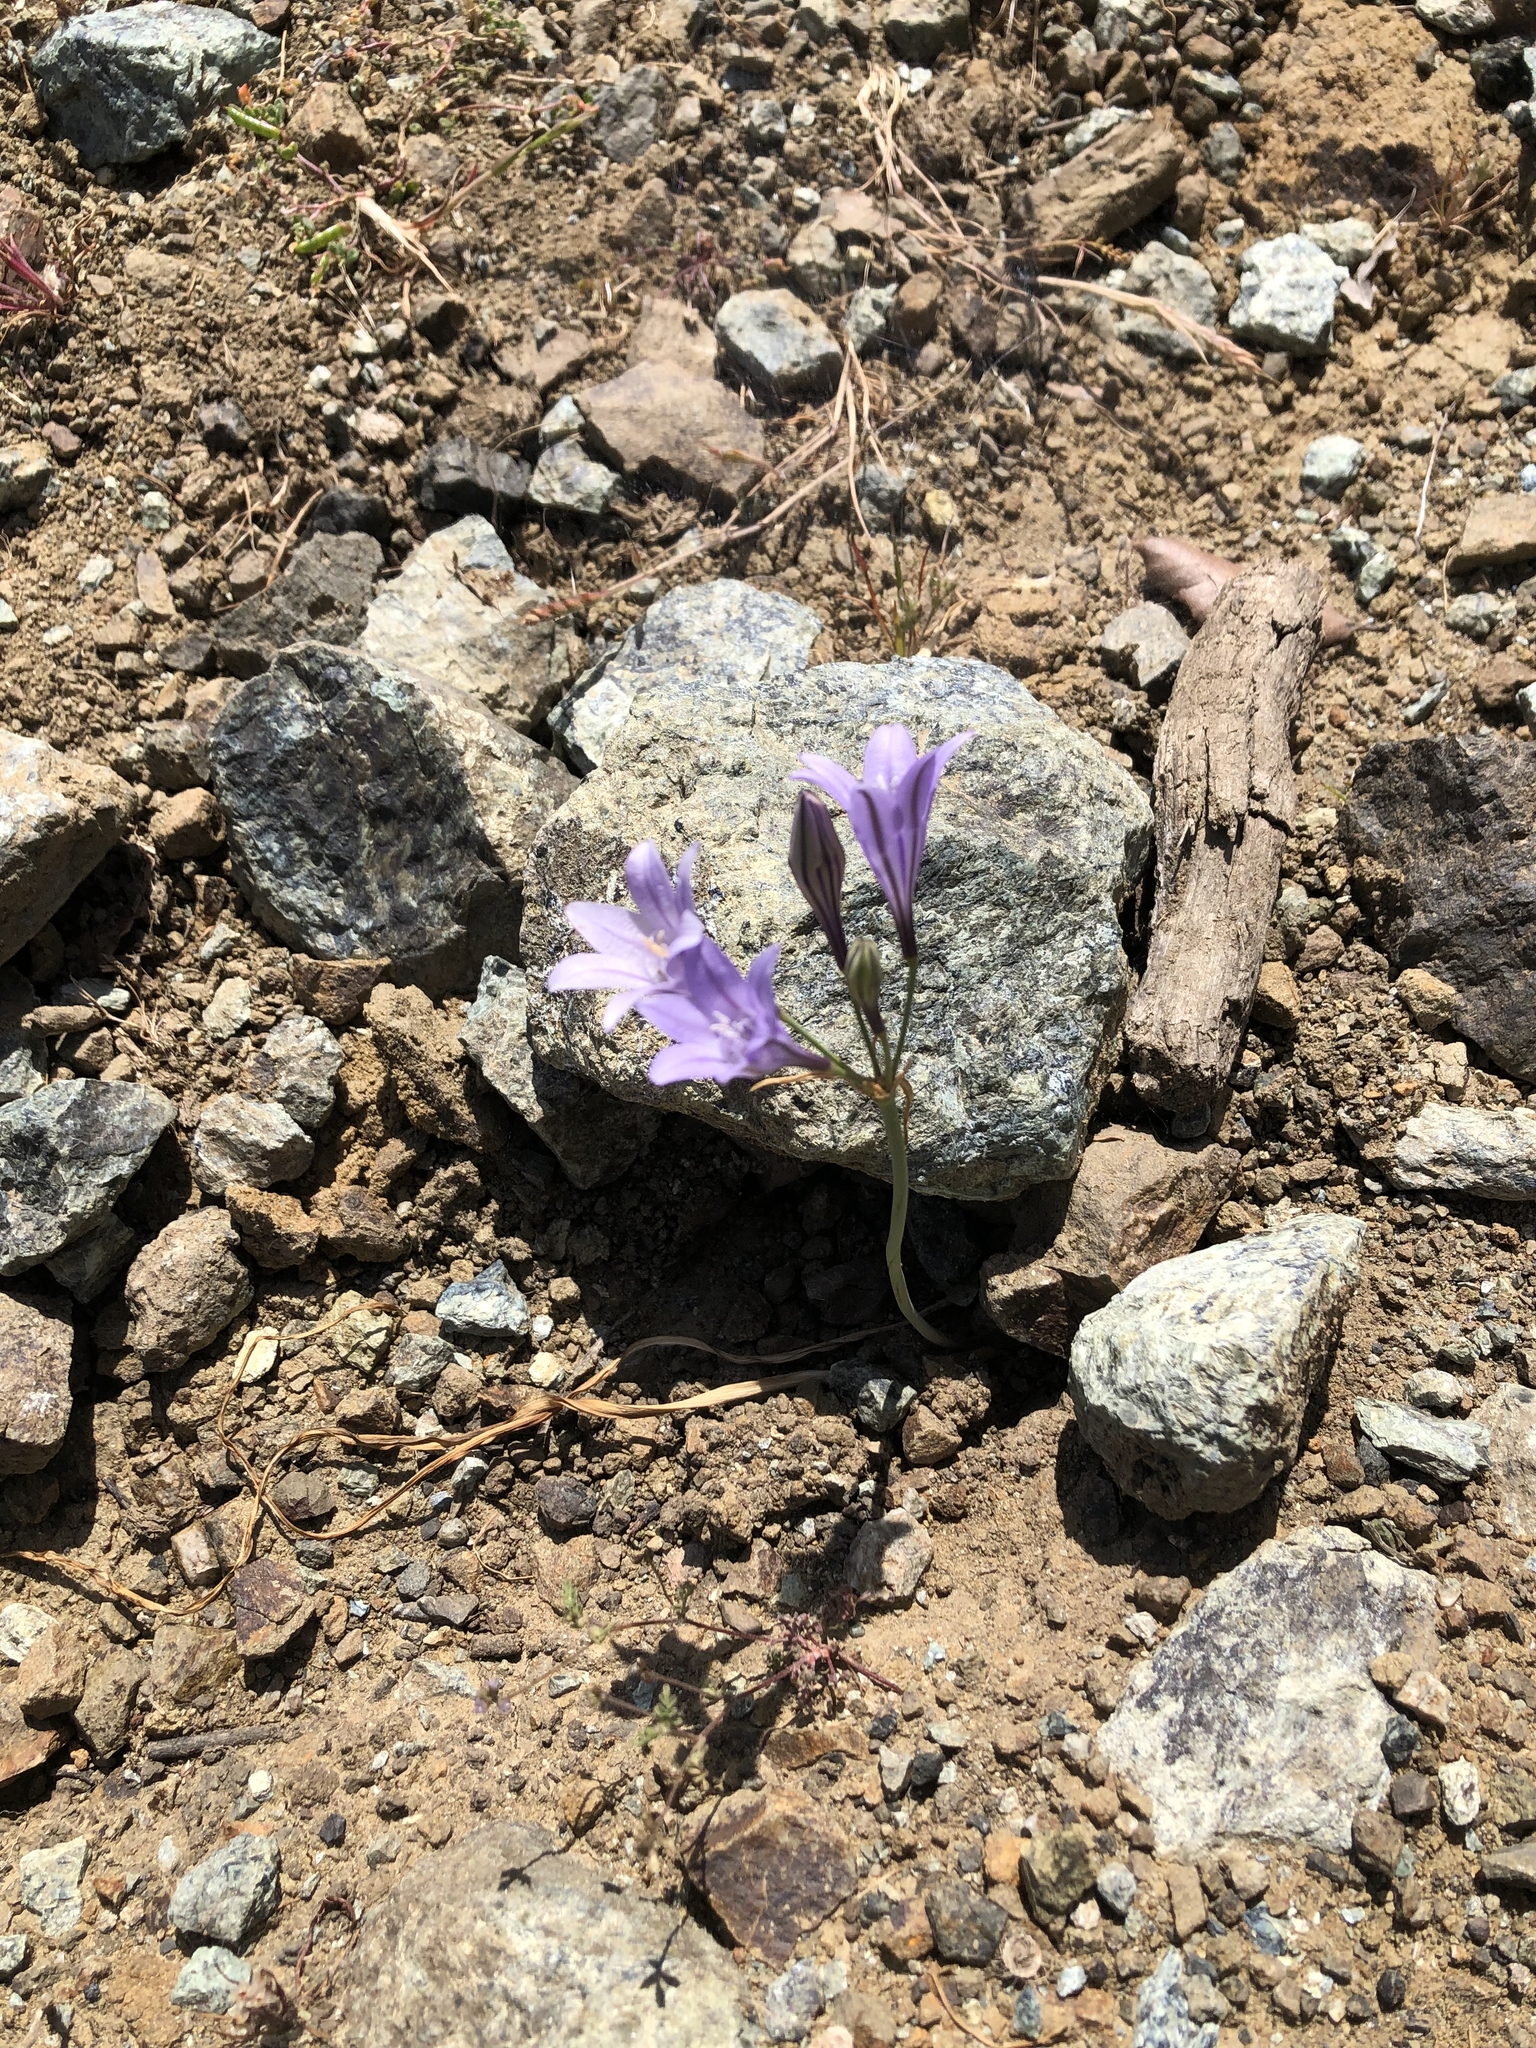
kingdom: Plantae
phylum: Tracheophyta
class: Liliopsida
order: Asparagales
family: Asparagaceae
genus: Triteleia
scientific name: Triteleia laxa
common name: Triplet-lily
